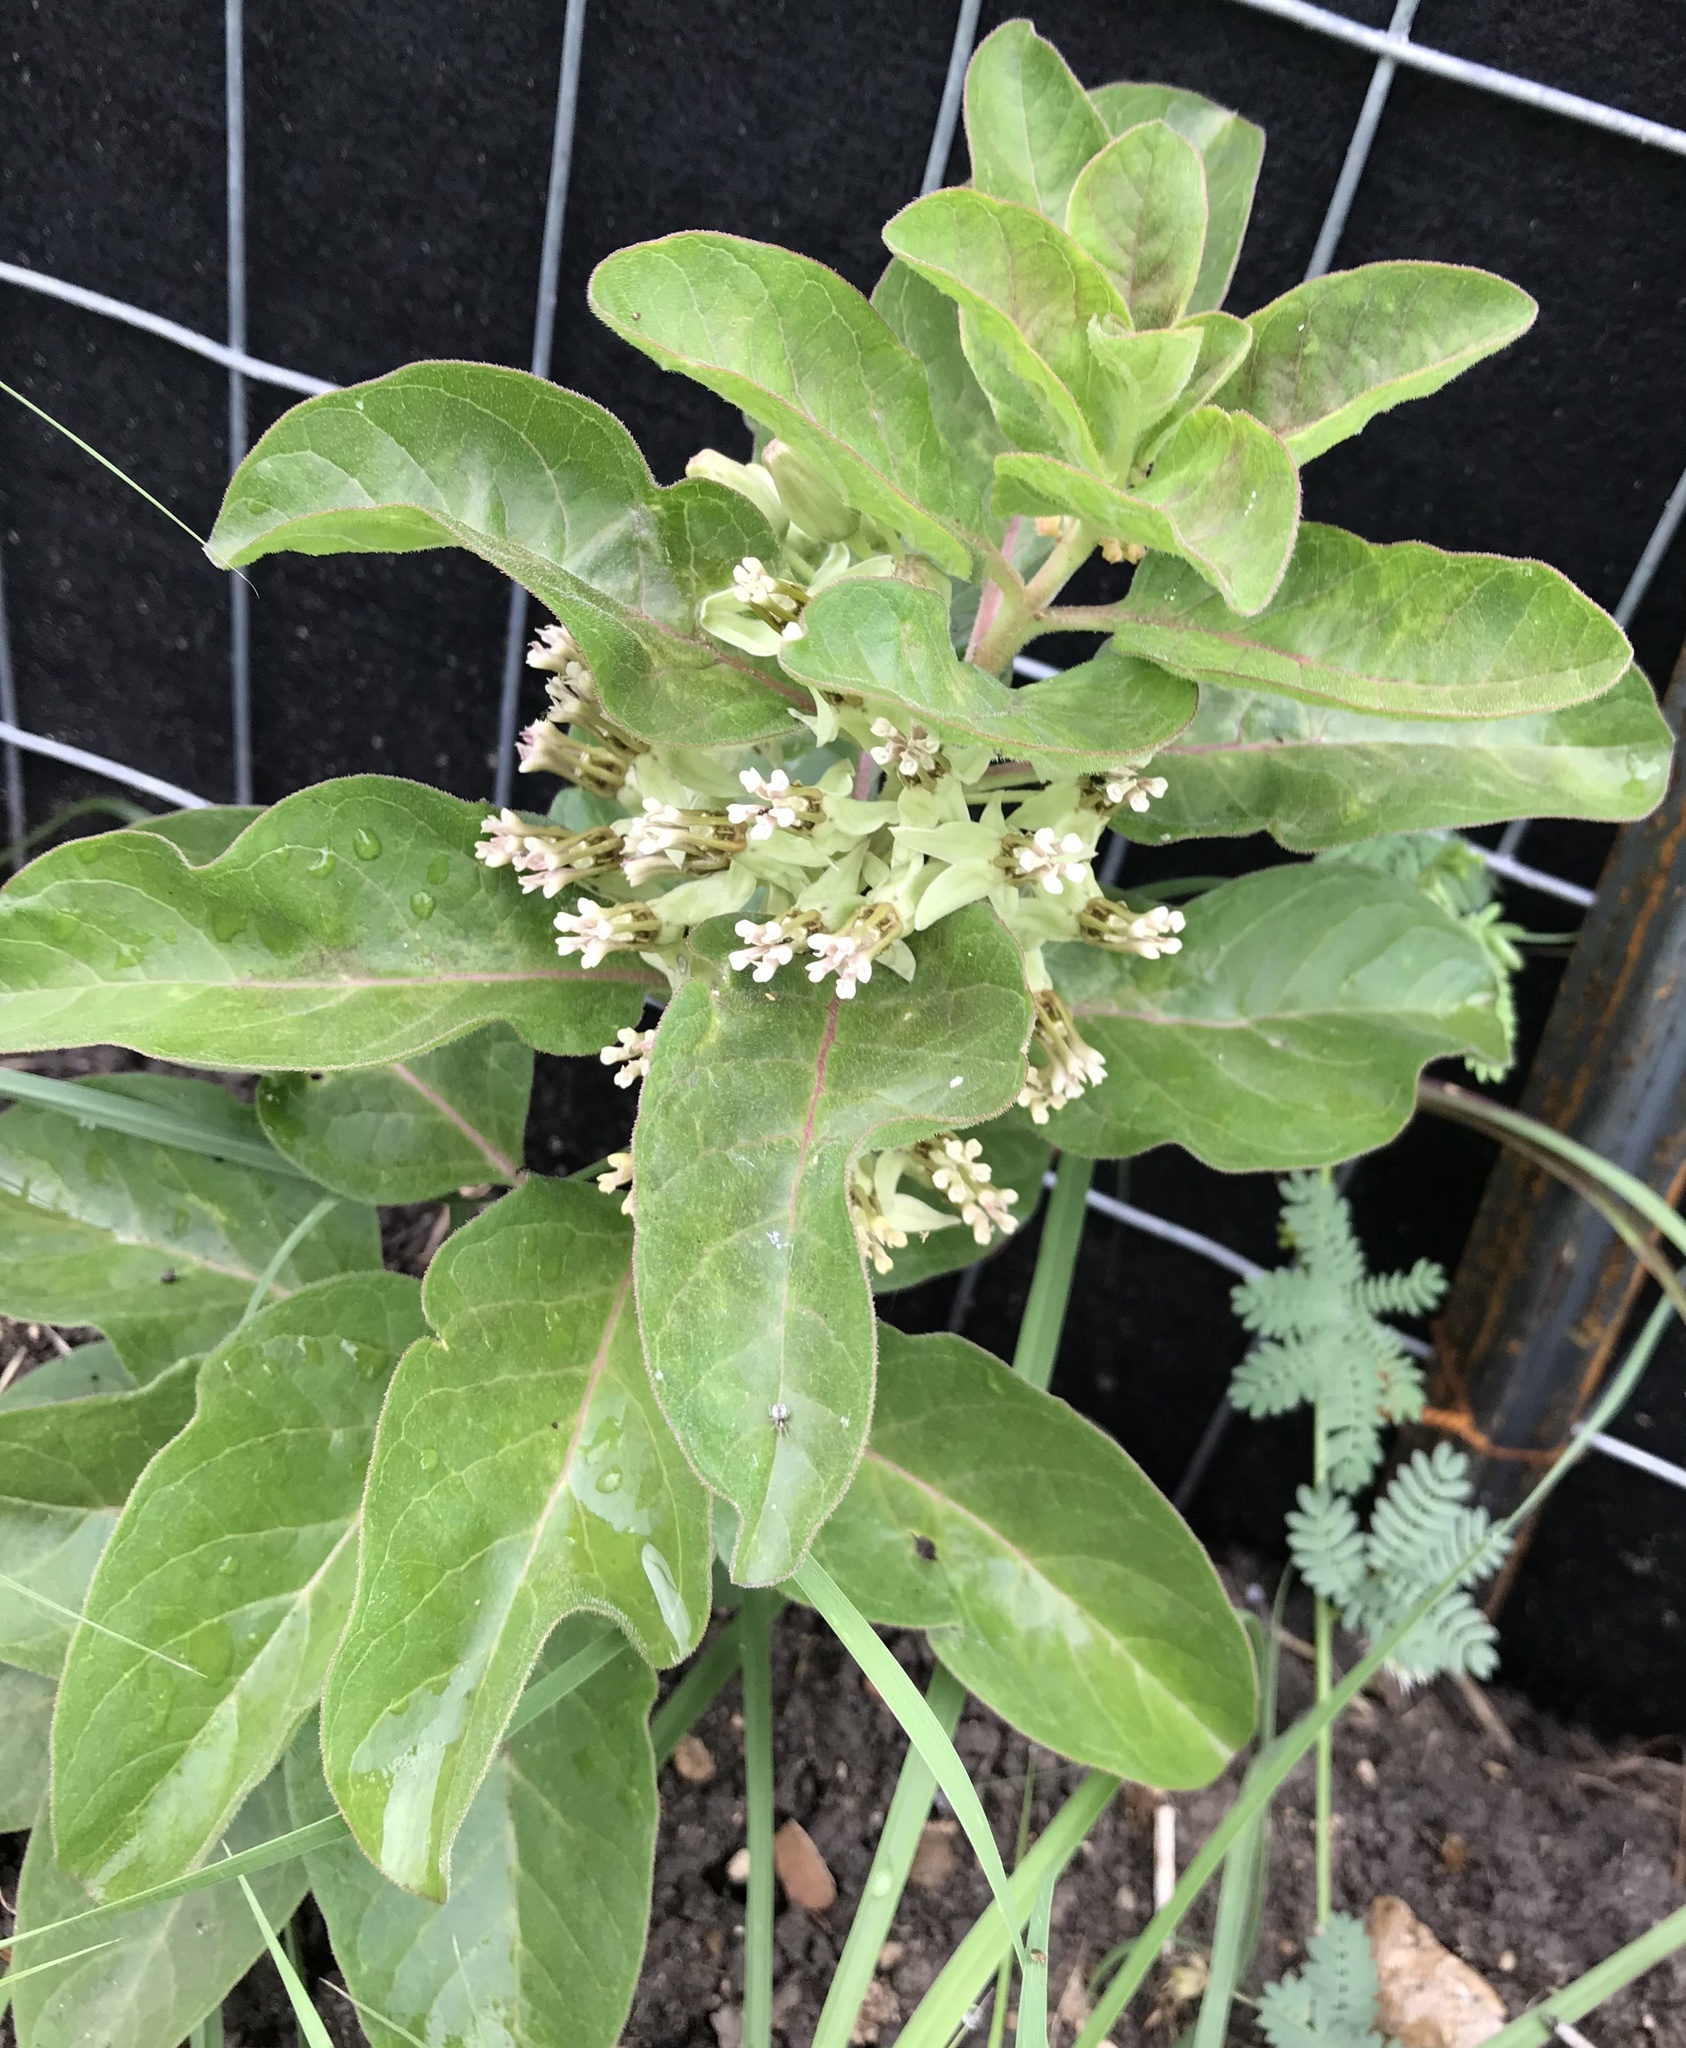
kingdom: Plantae
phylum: Tracheophyta
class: Magnoliopsida
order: Gentianales
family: Apocynaceae
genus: Asclepias
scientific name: Asclepias oenotheroides
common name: Zizotes milkweed
